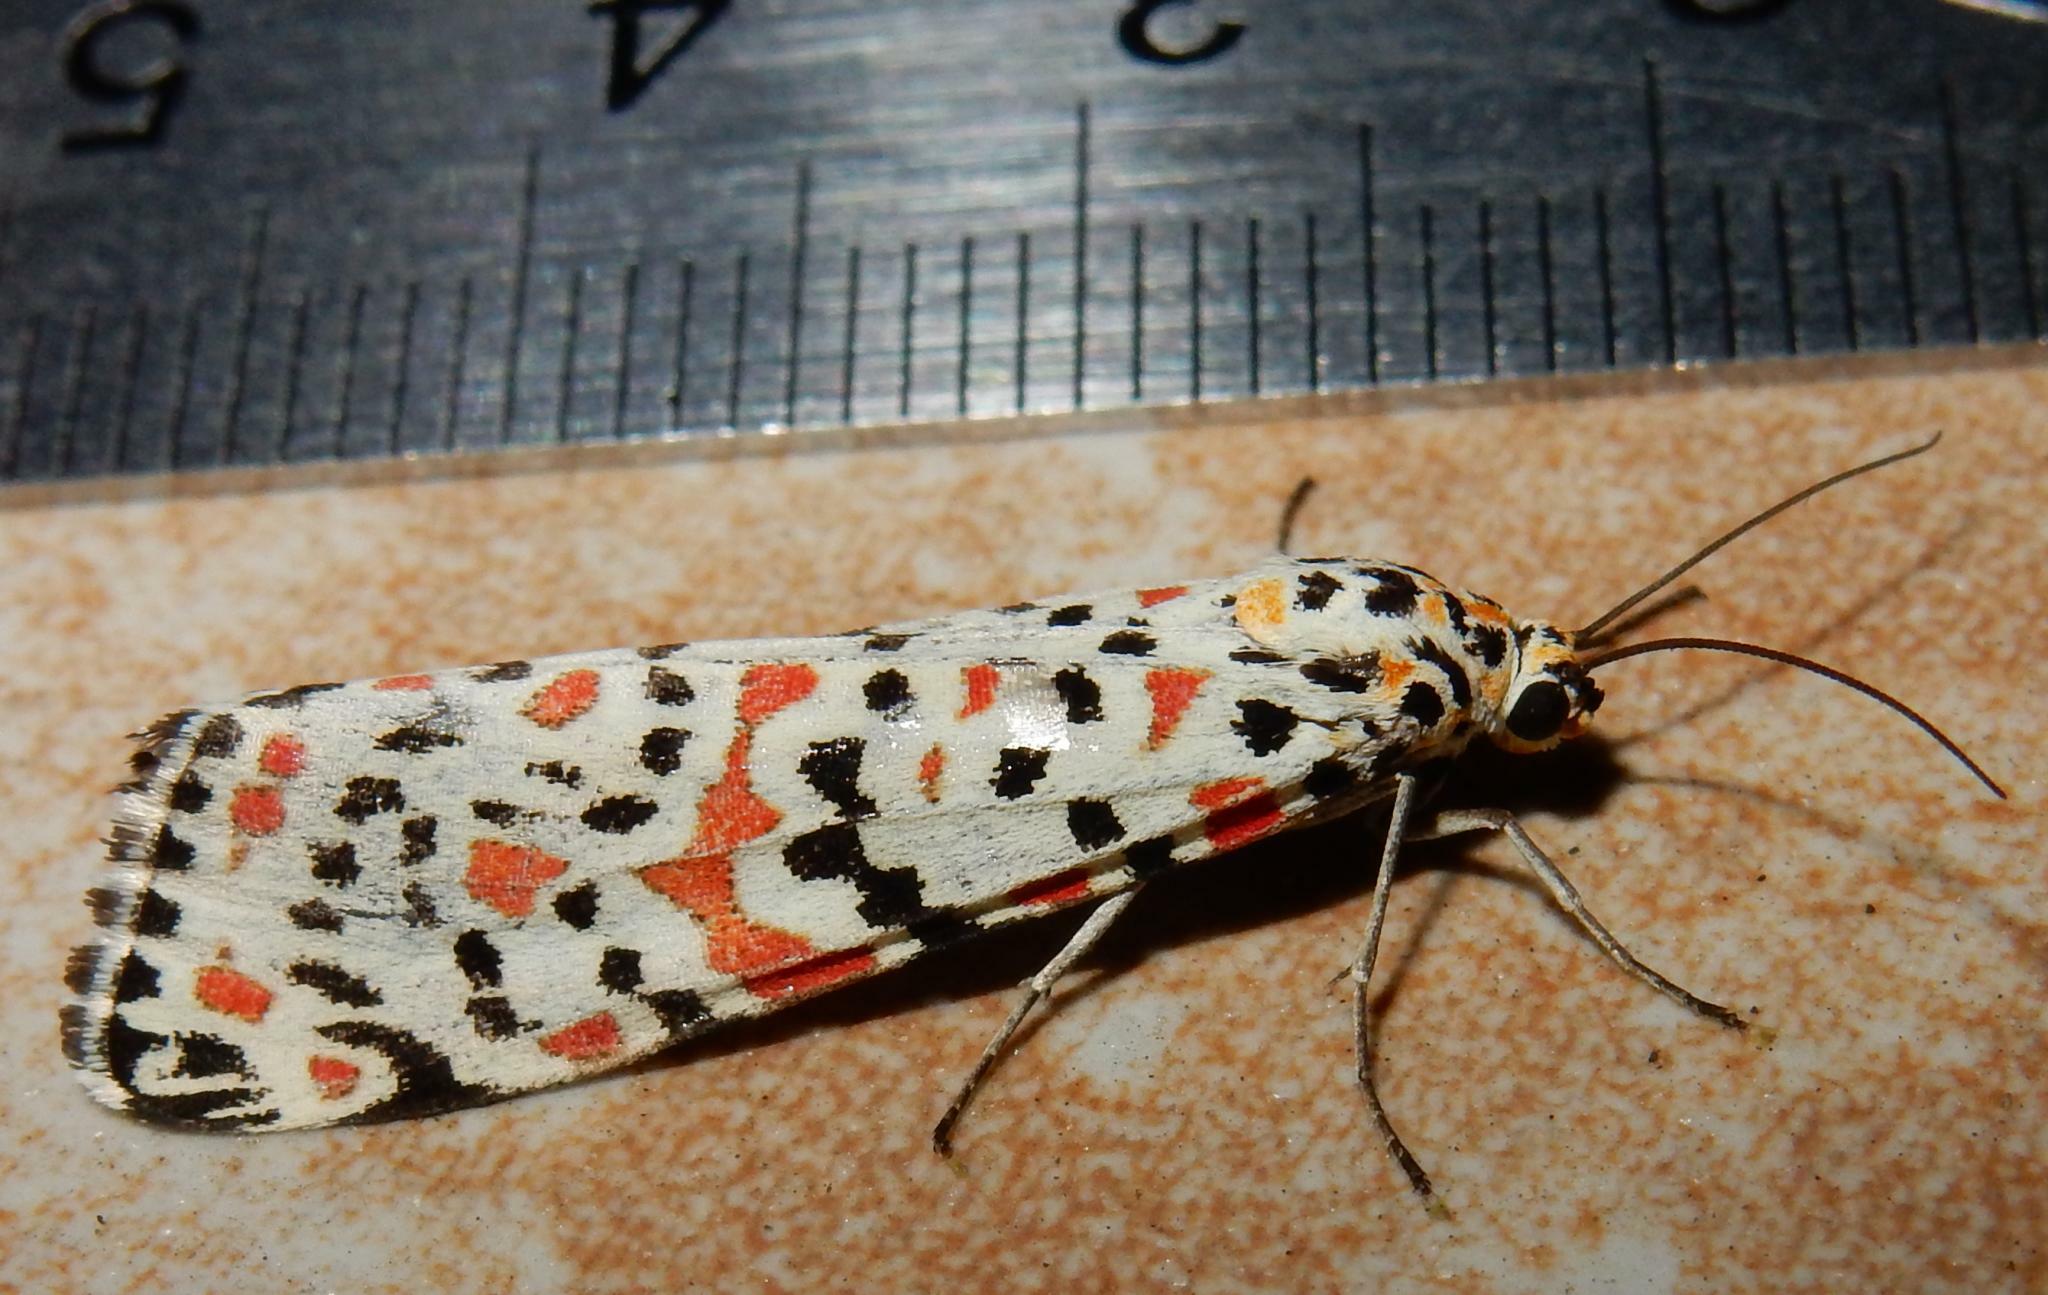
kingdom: Animalia
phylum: Arthropoda
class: Insecta
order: Lepidoptera
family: Erebidae
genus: Utetheisa
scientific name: Utetheisa pulchella
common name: Crimson speckled
